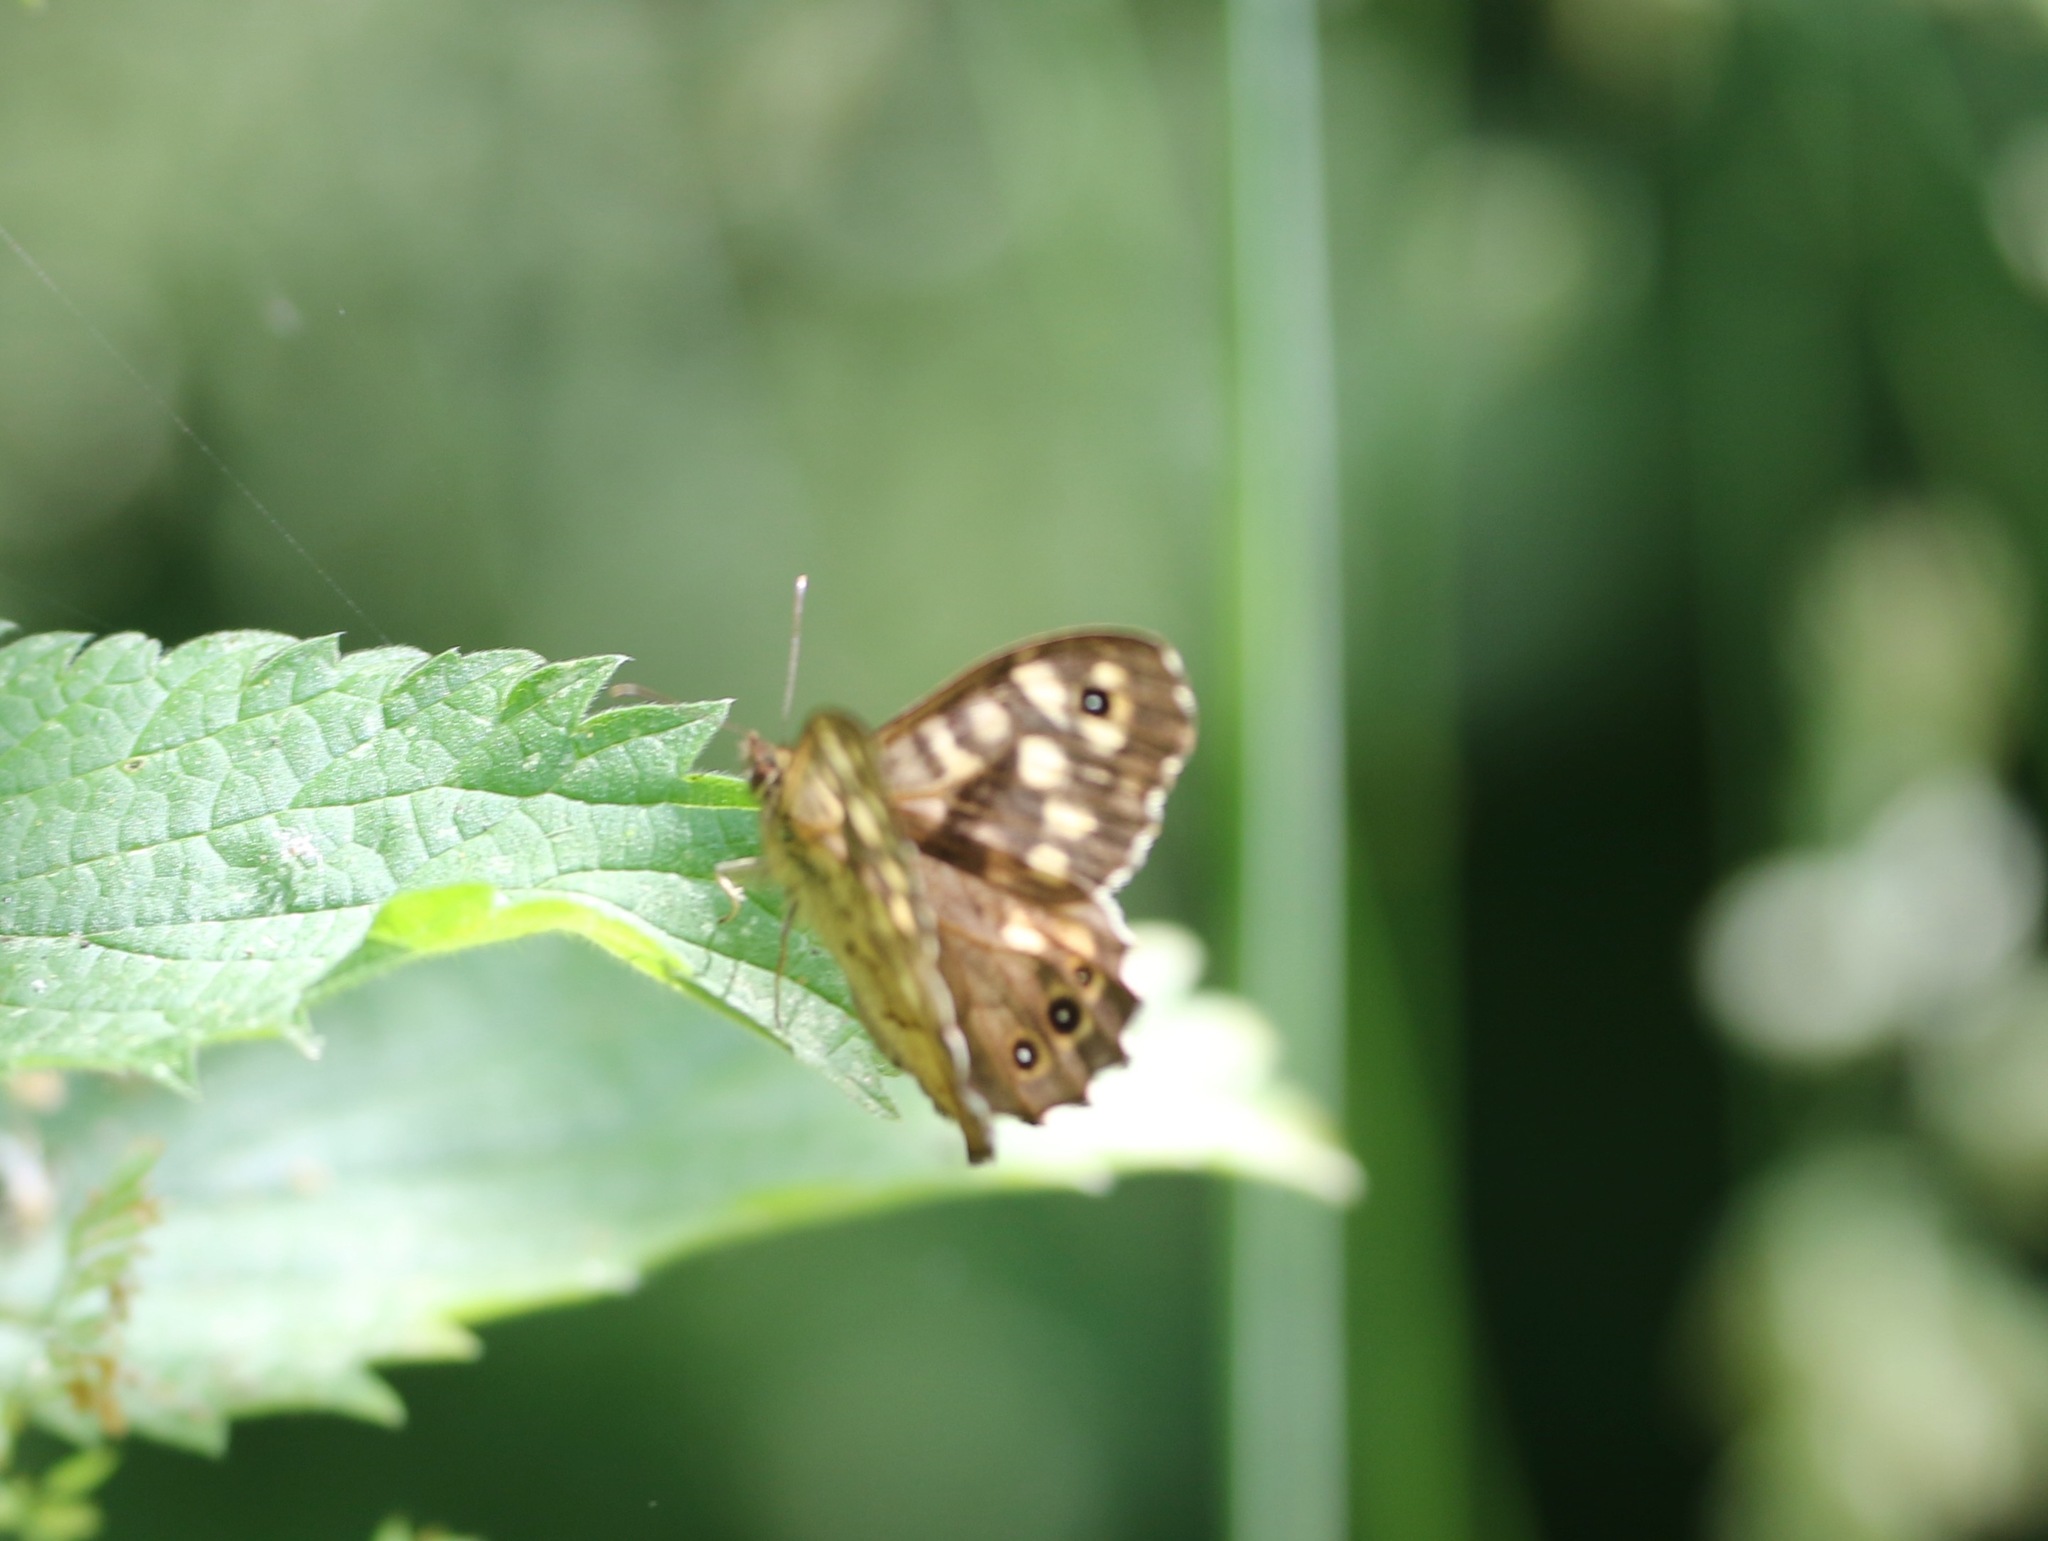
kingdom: Animalia
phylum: Arthropoda
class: Insecta
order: Lepidoptera
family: Nymphalidae
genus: Pararge
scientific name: Pararge aegeria
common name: Speckled wood
